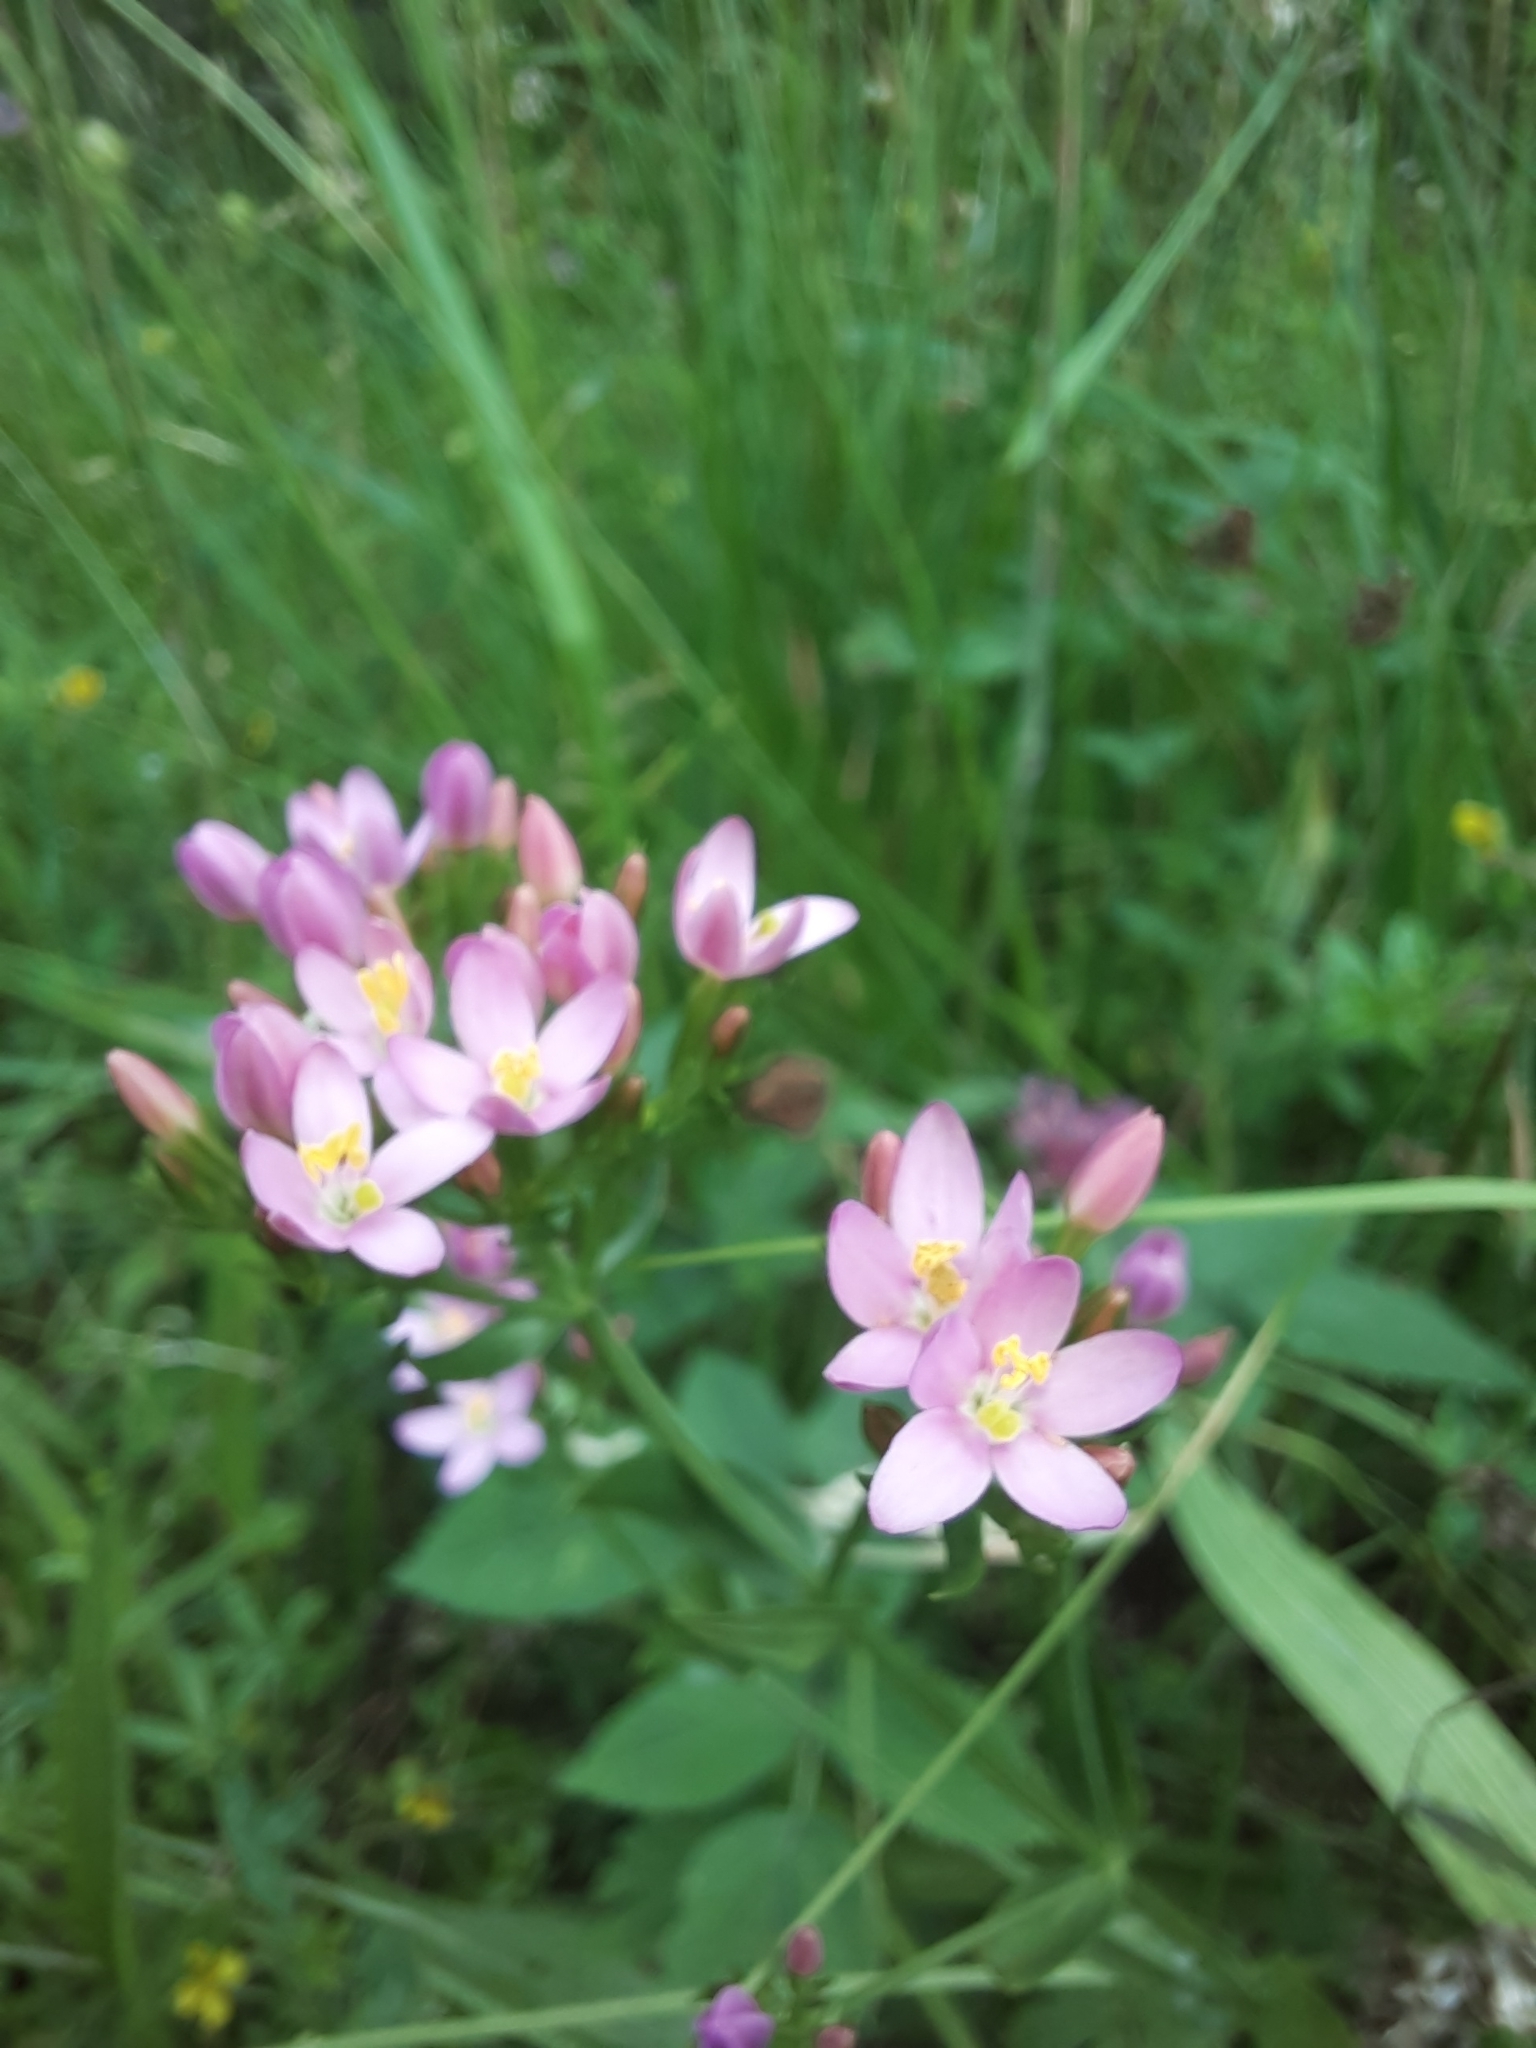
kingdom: Plantae
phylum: Tracheophyta
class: Magnoliopsida
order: Gentianales
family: Gentianaceae
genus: Centaurium
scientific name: Centaurium erythraea
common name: Common centaury
